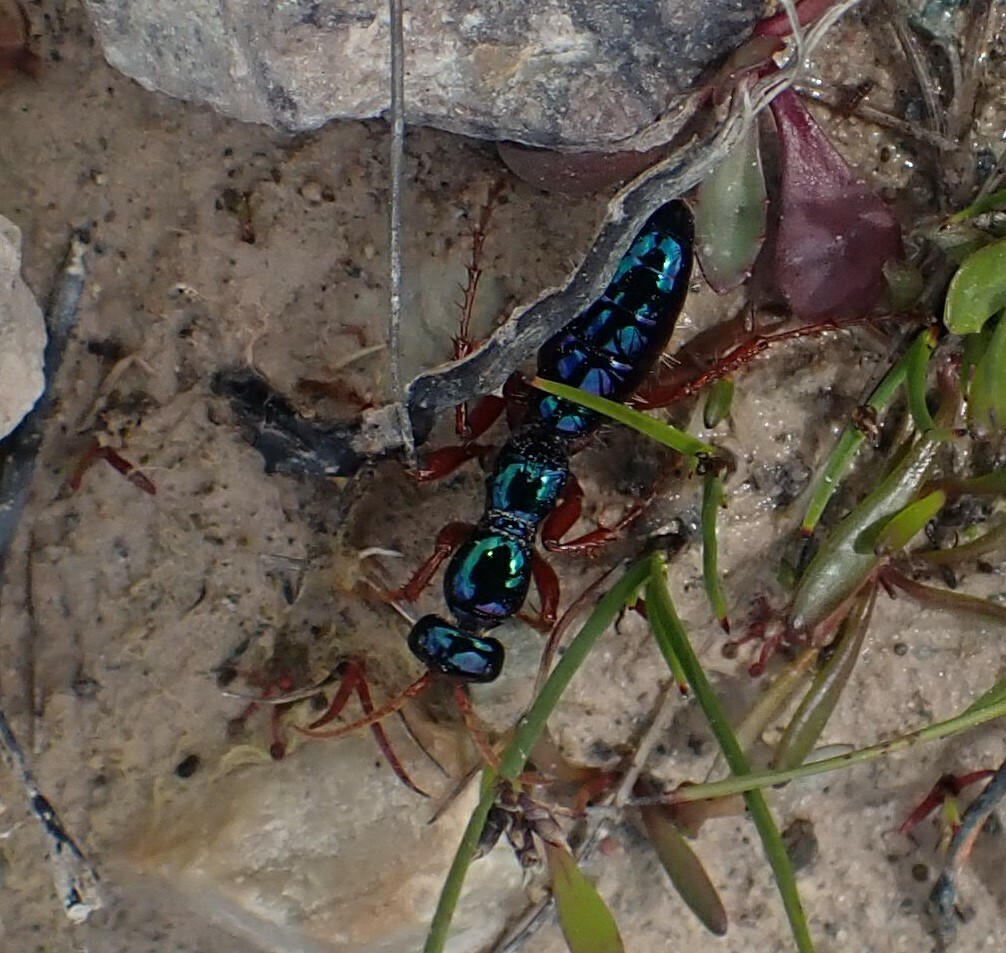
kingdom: Animalia
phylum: Arthropoda
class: Insecta
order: Hymenoptera
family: Tiphiidae
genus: Diamma
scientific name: Diamma
